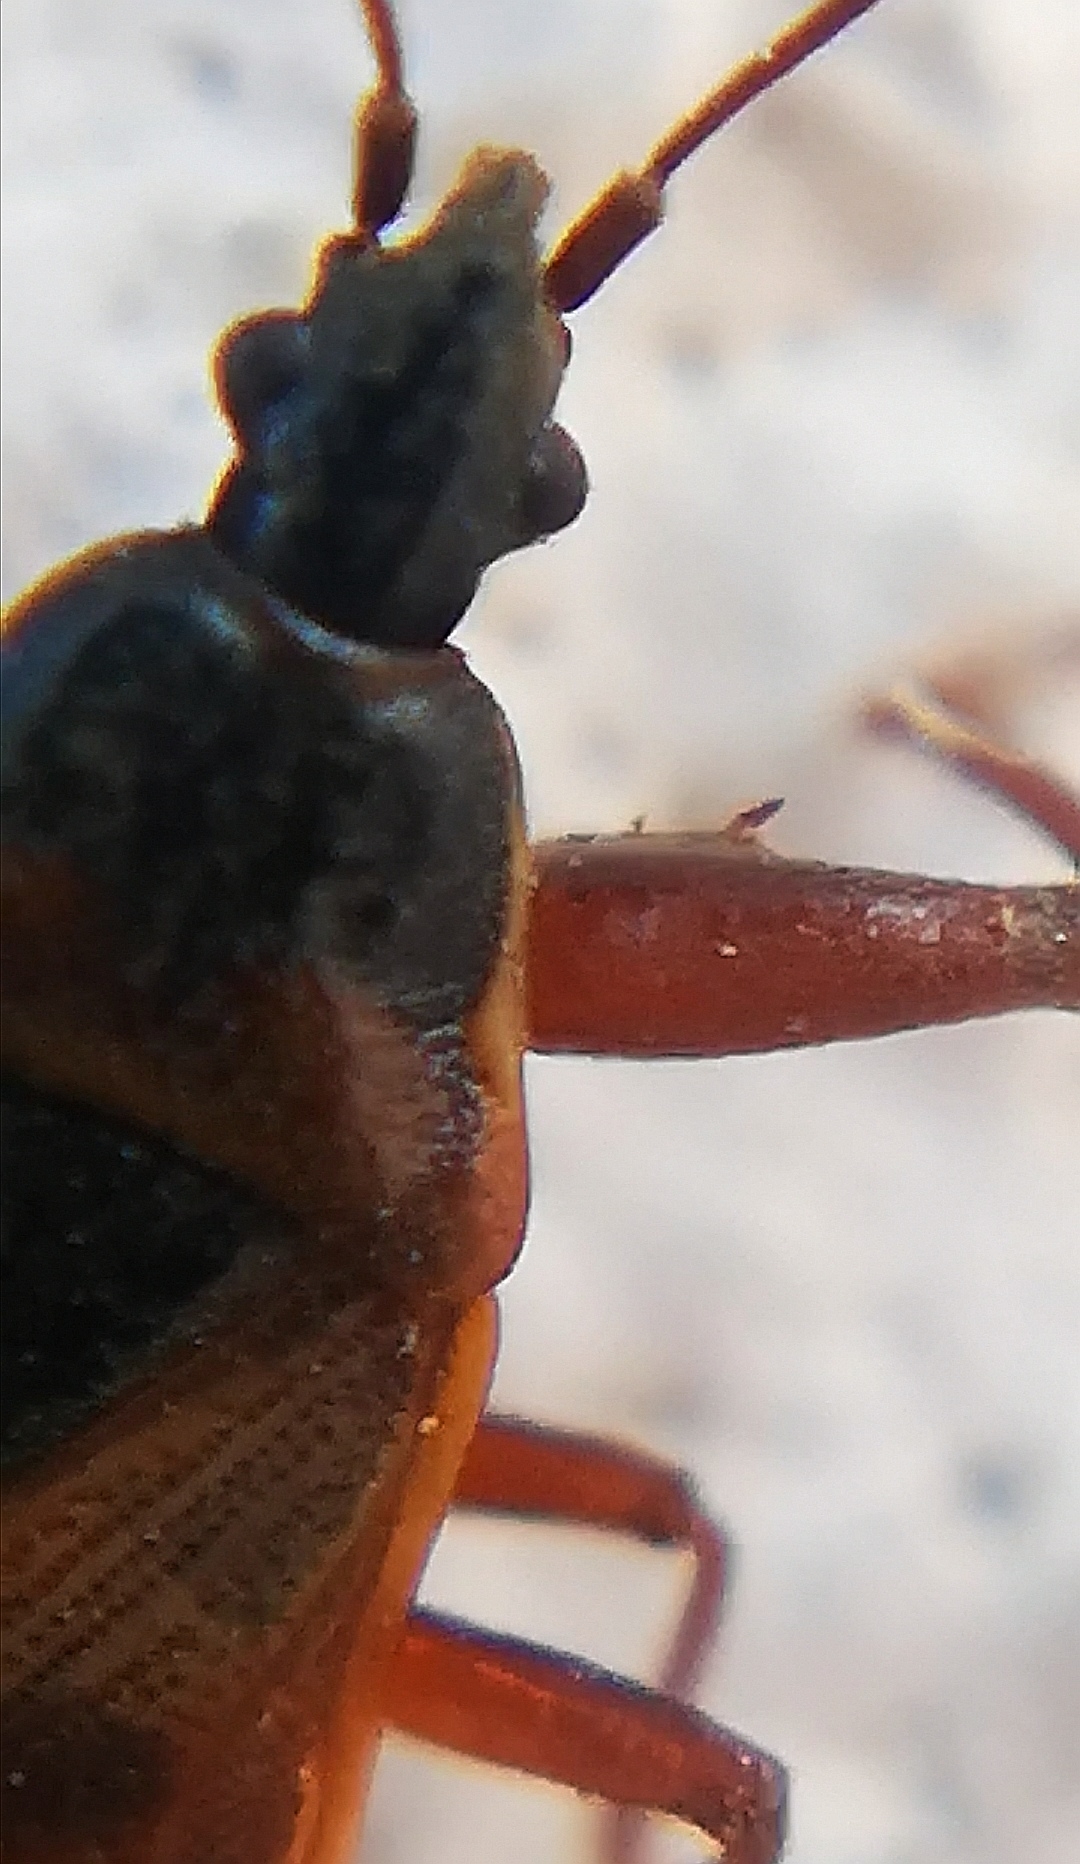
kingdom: Animalia
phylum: Arthropoda
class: Insecta
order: Hemiptera
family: Rhyparochromidae
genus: Gastrodes
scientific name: Gastrodes abietum
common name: Spruce cone bug
